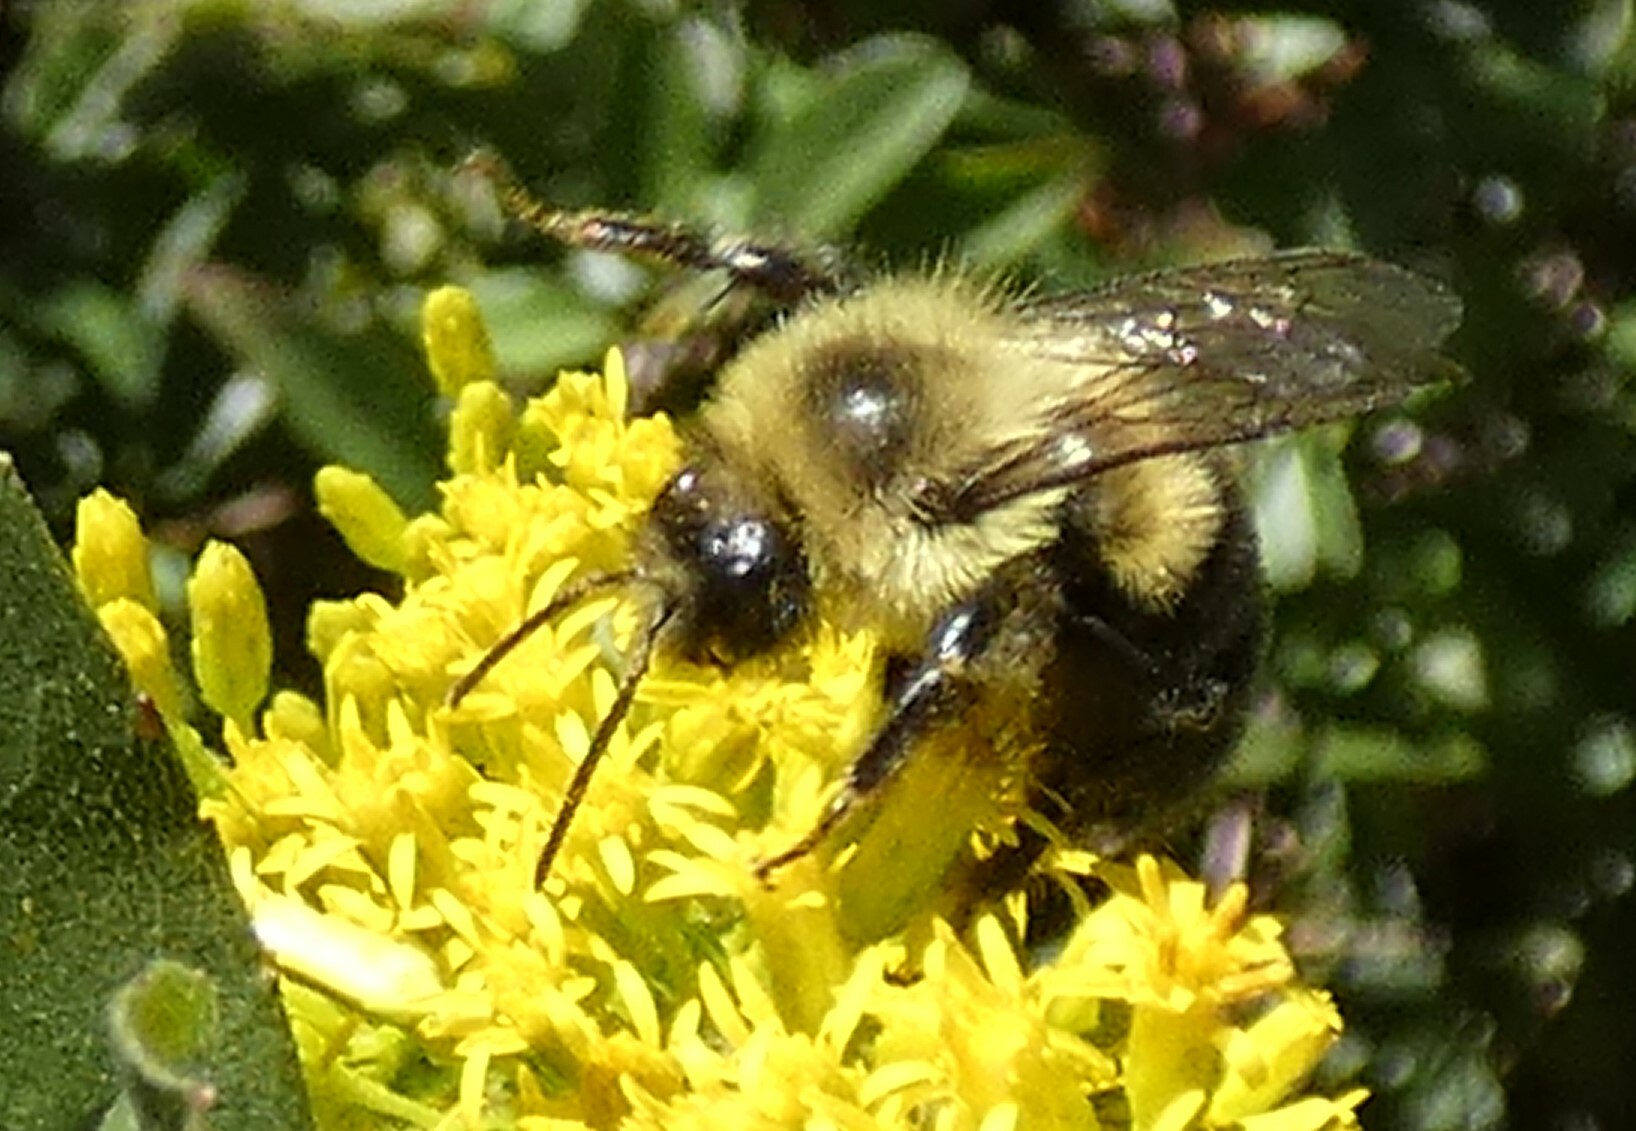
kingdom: Animalia
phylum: Arthropoda
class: Insecta
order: Hymenoptera
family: Apidae
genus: Bombus
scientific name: Bombus impatiens
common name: Common eastern bumble bee
